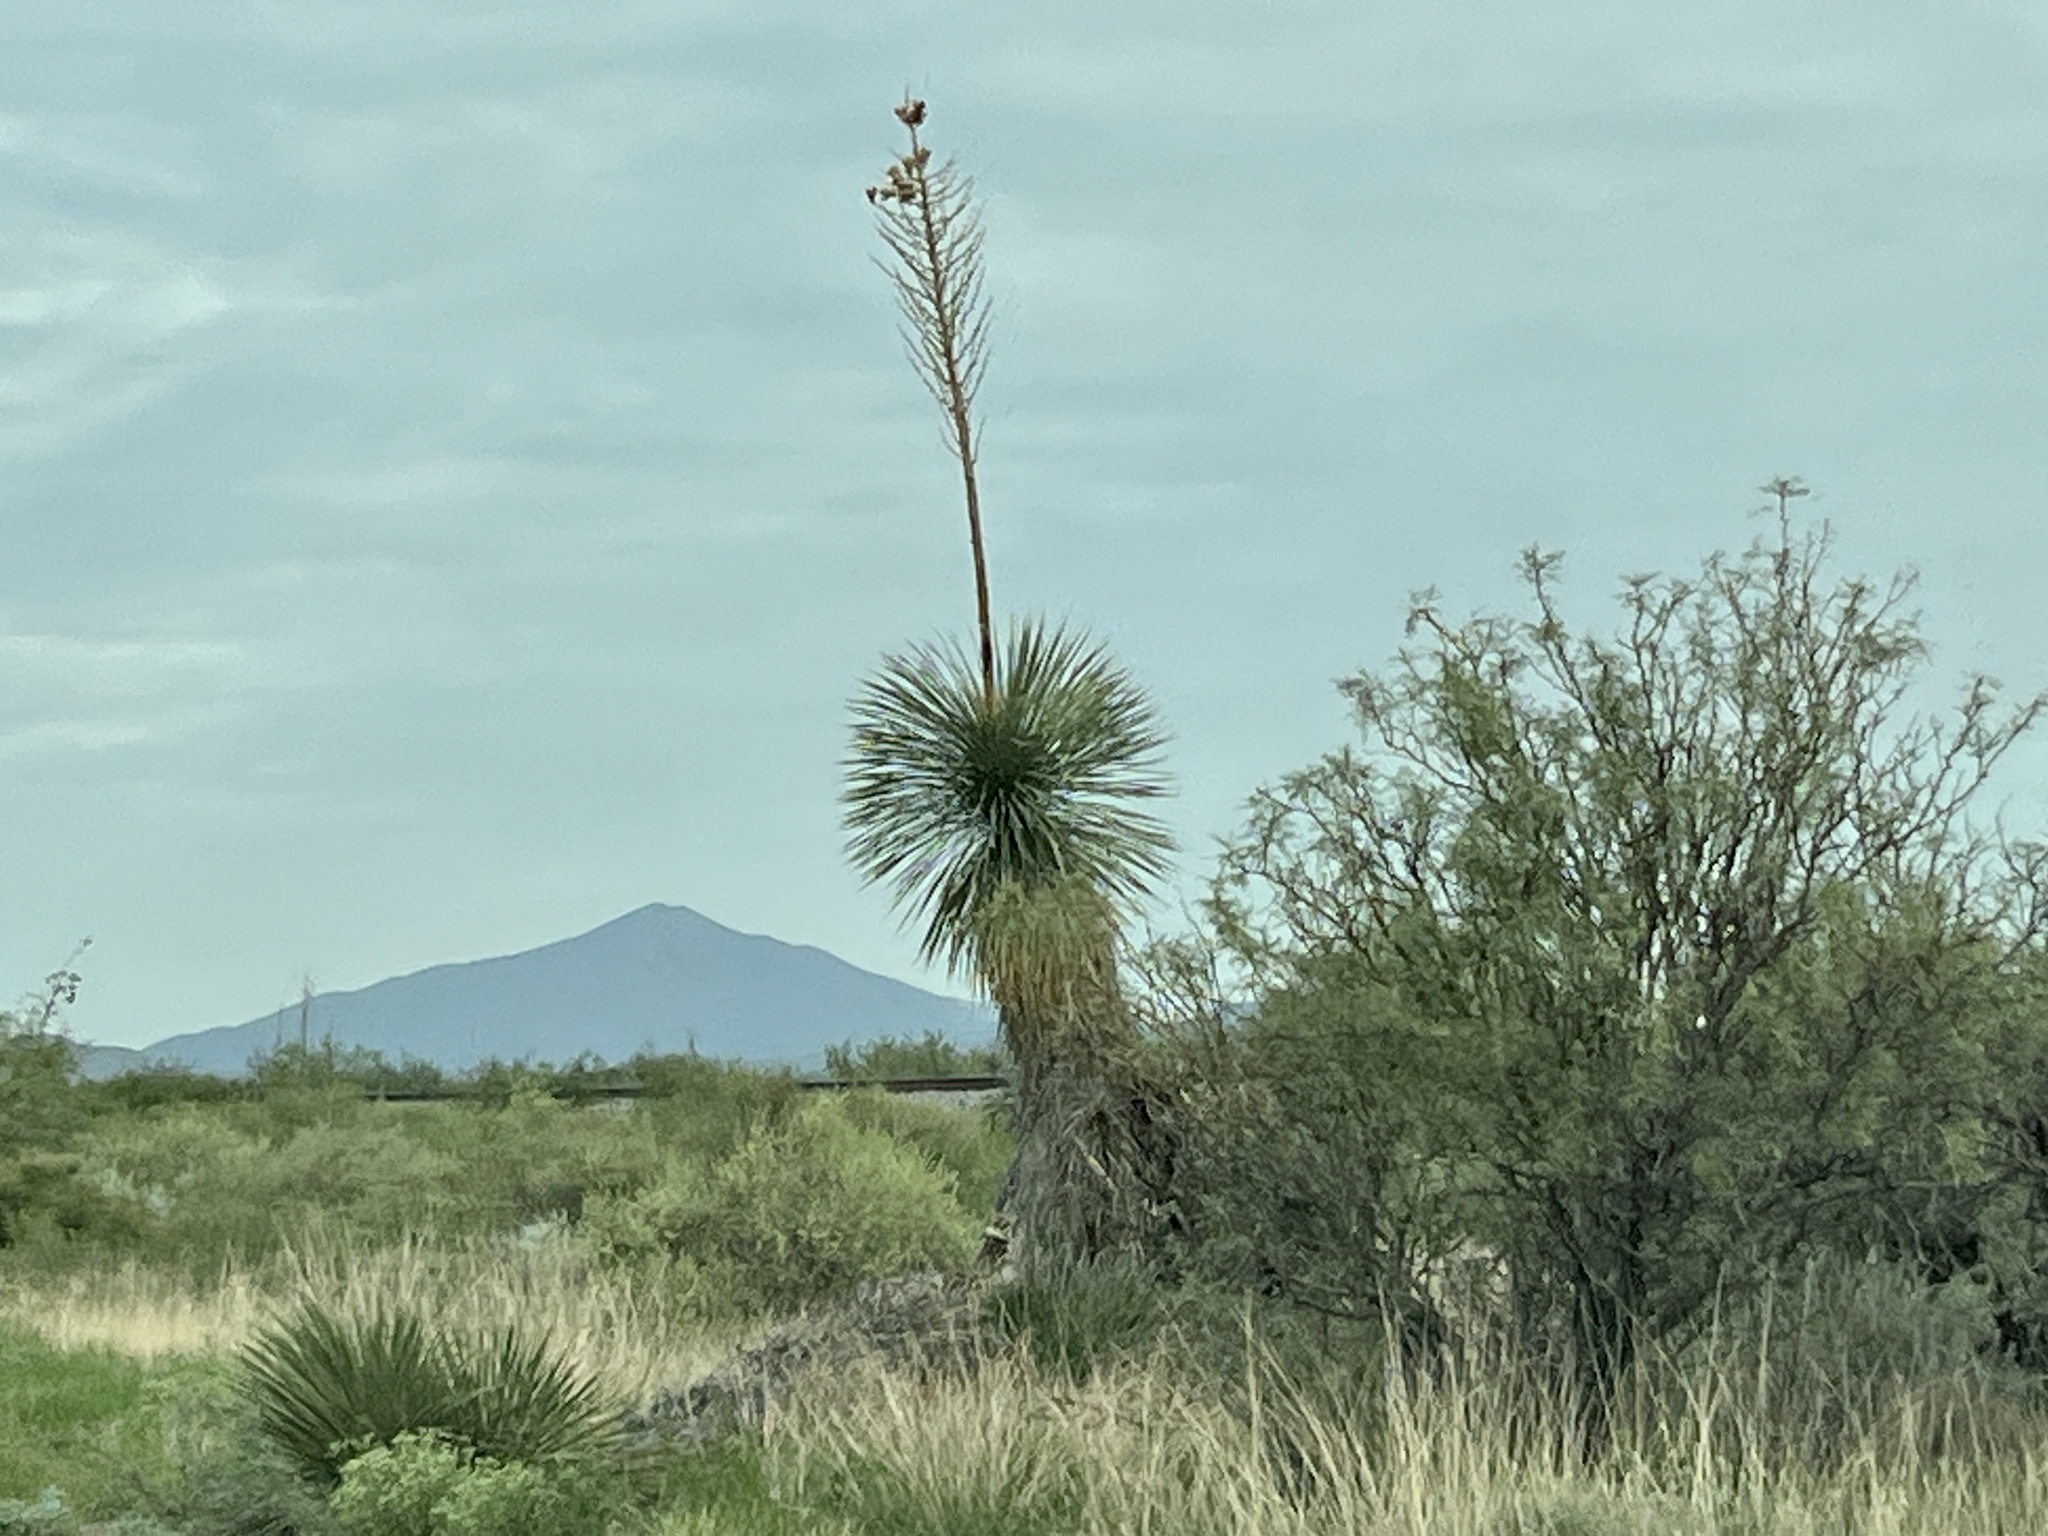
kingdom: Plantae
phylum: Tracheophyta
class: Liliopsida
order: Asparagales
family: Asparagaceae
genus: Yucca
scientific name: Yucca elata
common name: Palmella
